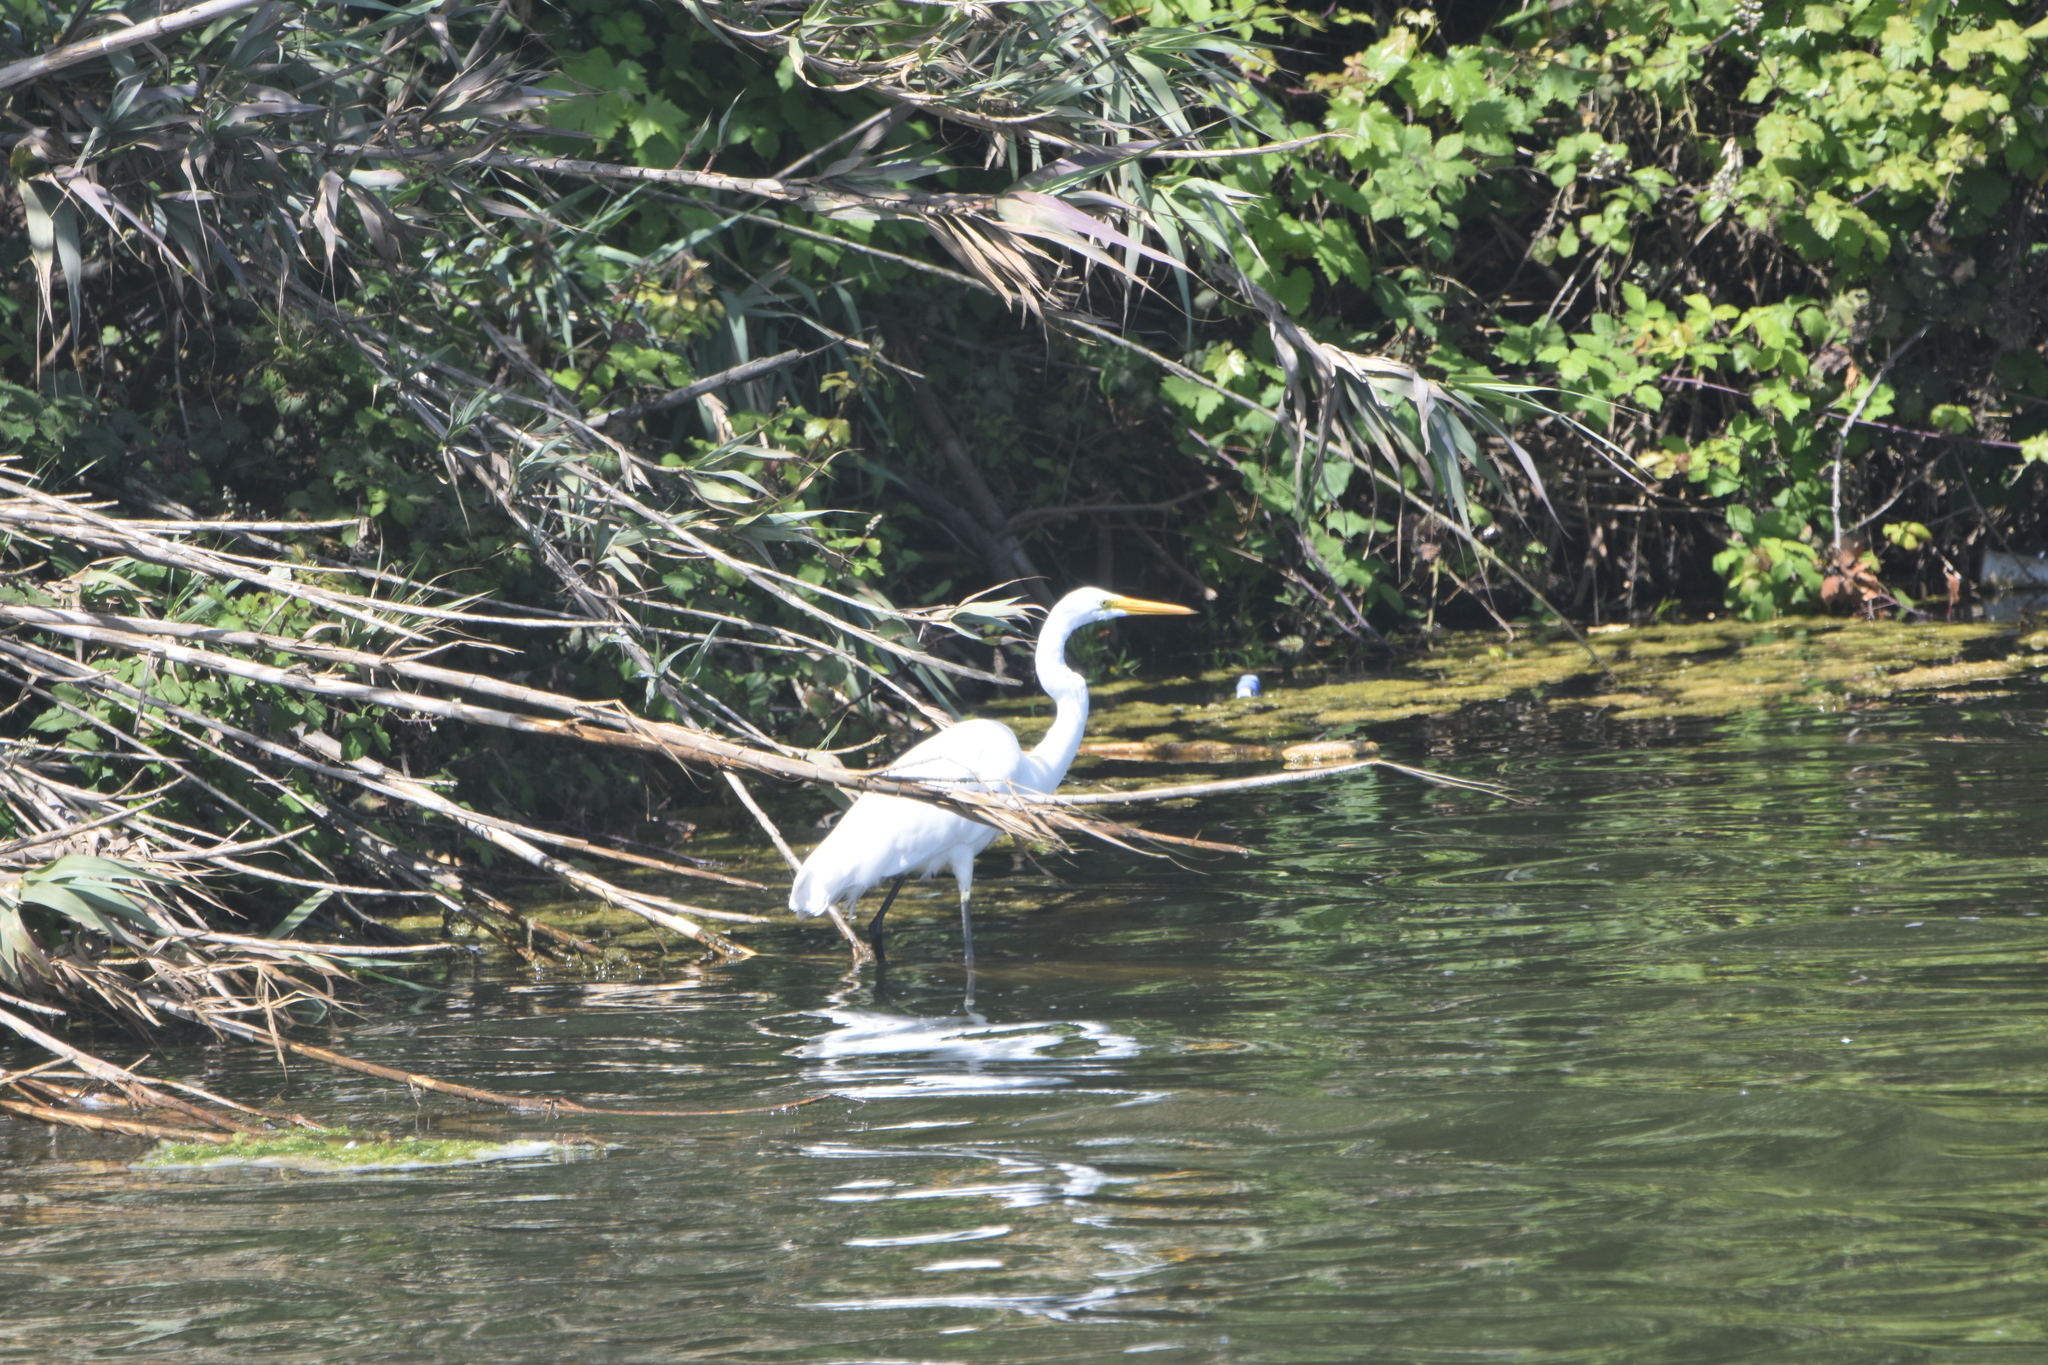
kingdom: Animalia
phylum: Chordata
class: Aves
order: Pelecaniformes
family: Ardeidae
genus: Ardea
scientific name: Ardea alba
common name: Great egret
